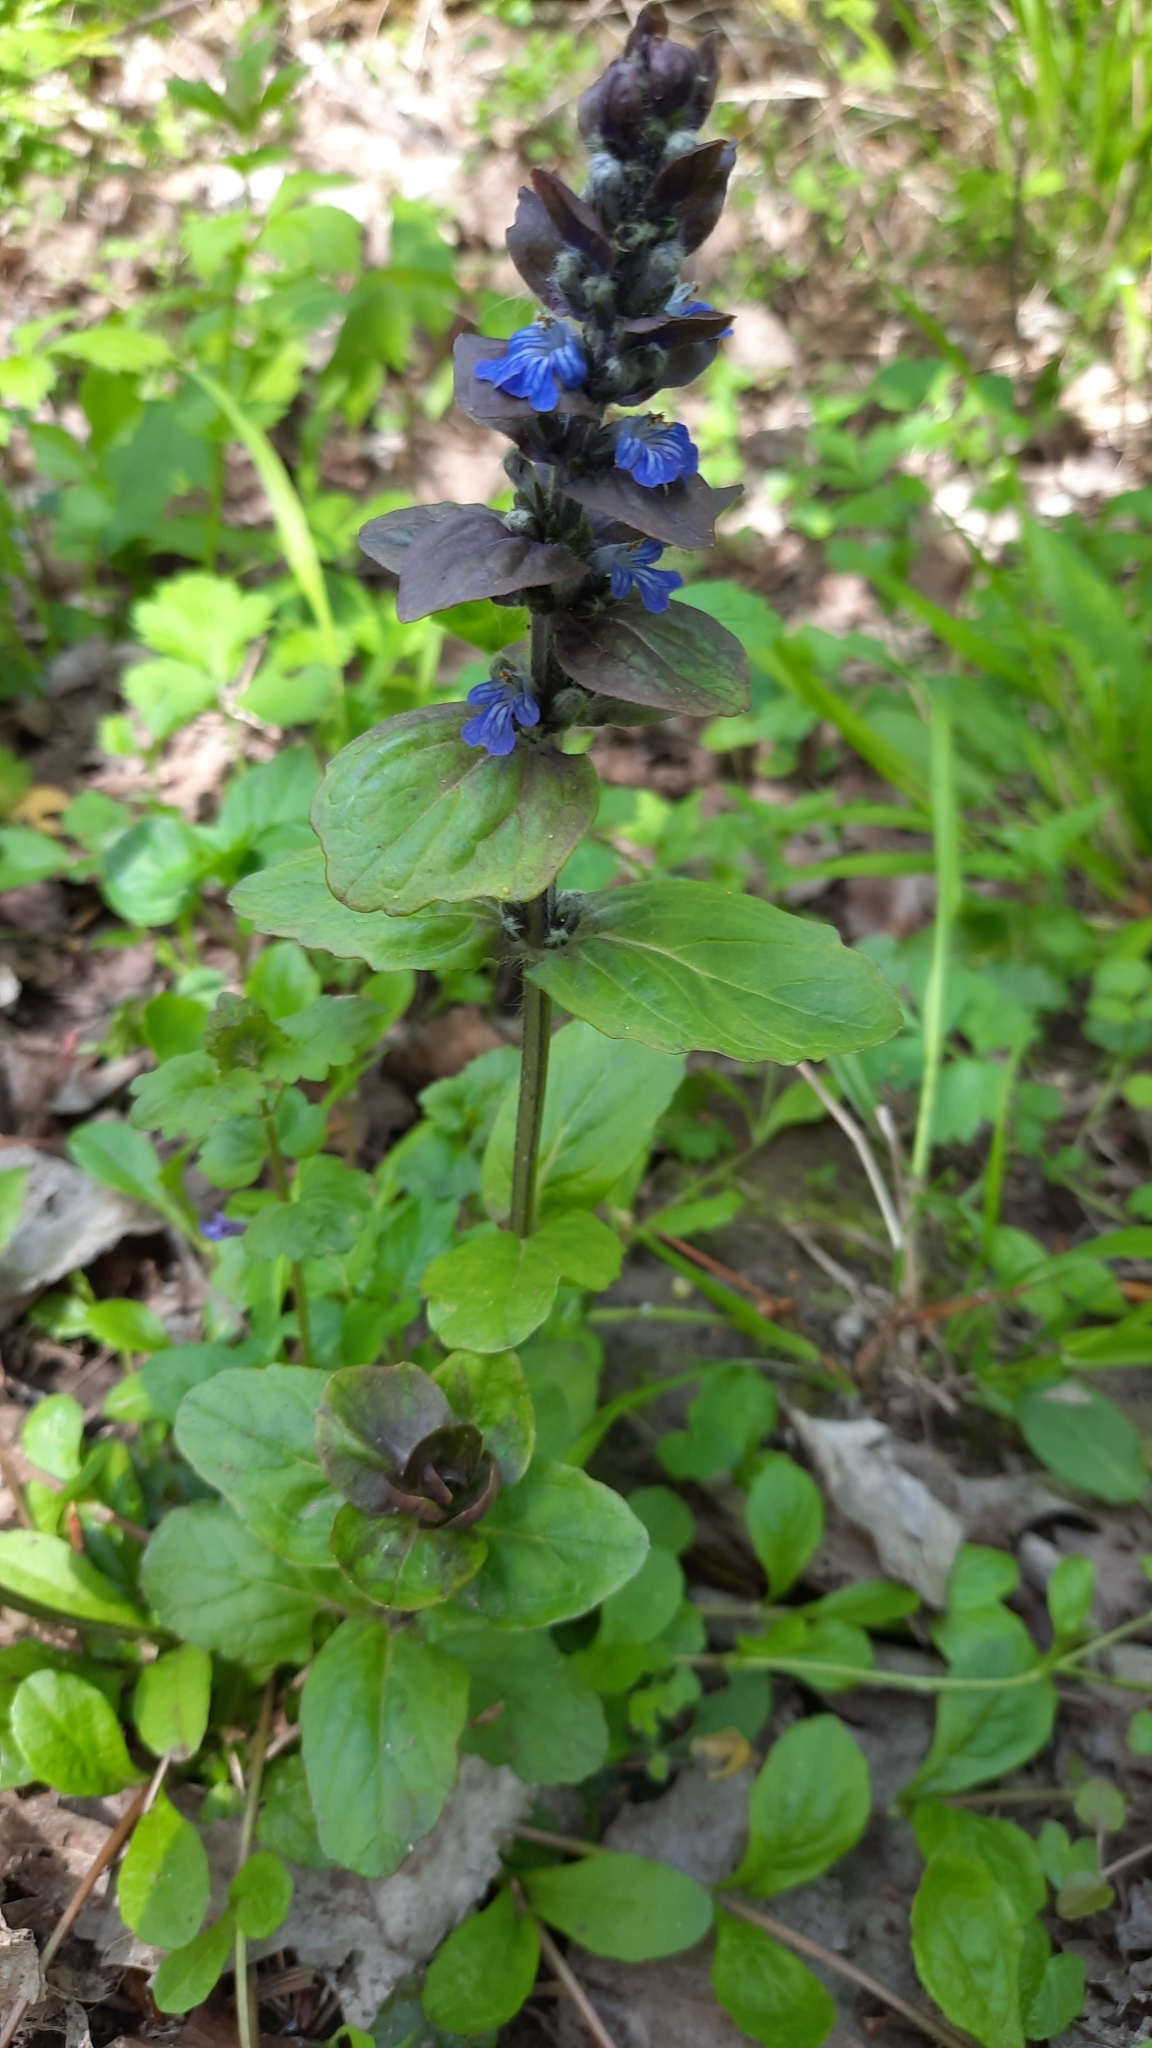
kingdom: Plantae
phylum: Tracheophyta
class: Magnoliopsida
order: Lamiales
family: Lamiaceae
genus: Ajuga
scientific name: Ajuga reptans
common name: Bugle
